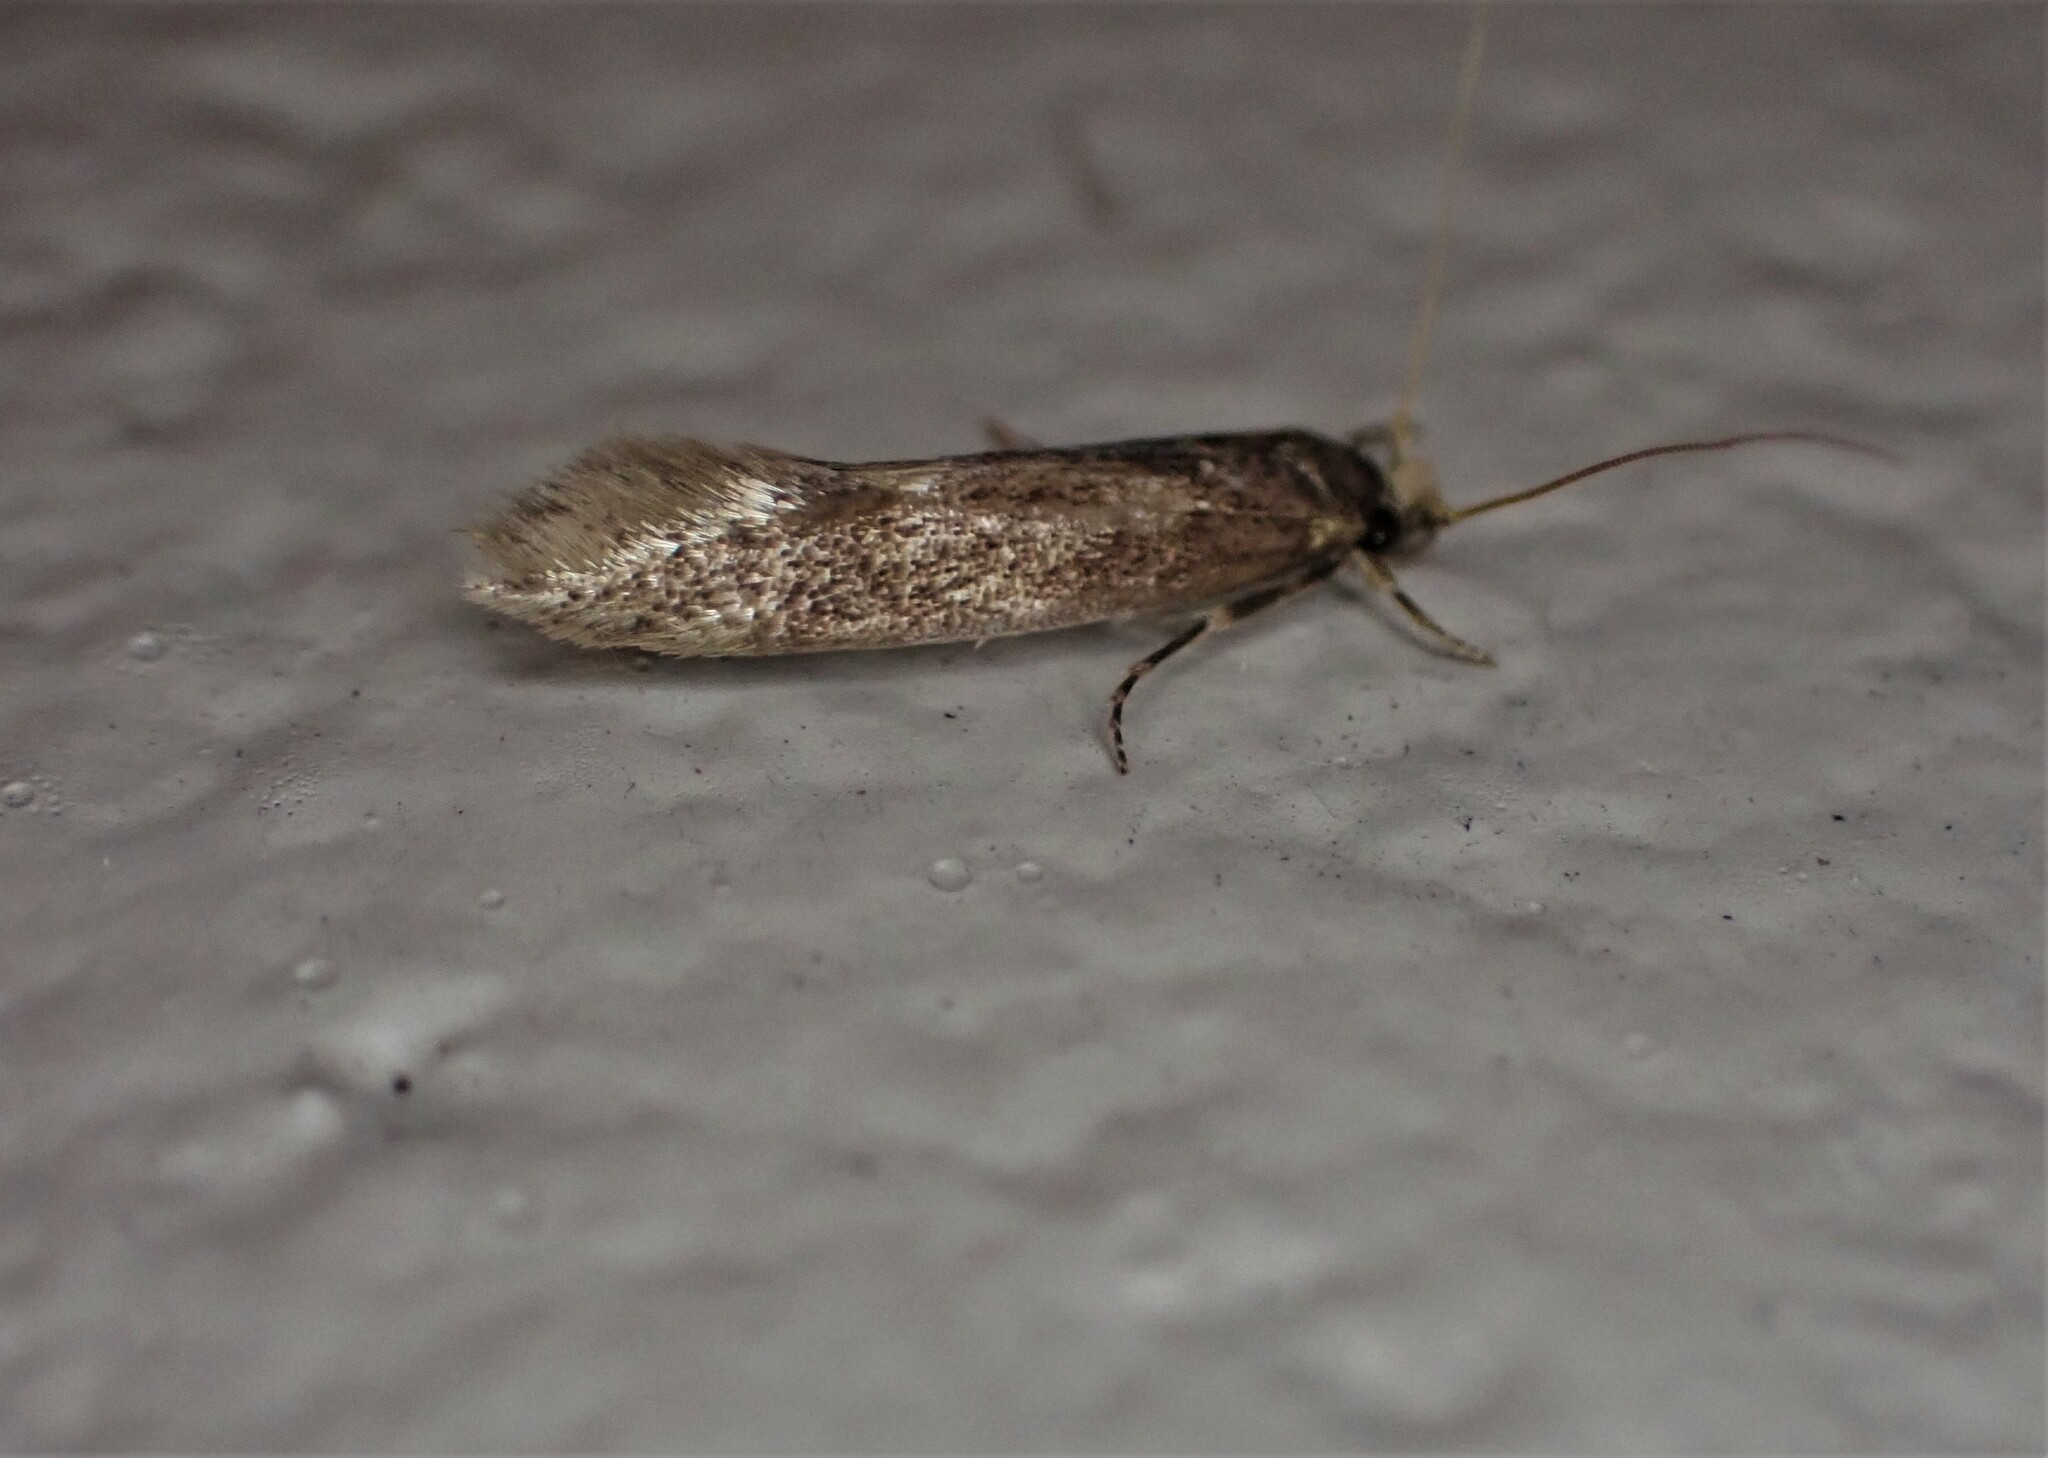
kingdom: Animalia
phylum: Arthropoda
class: Insecta
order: Lepidoptera
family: Tineidae
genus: Opogona
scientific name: Opogona omoscopa
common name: Moth
